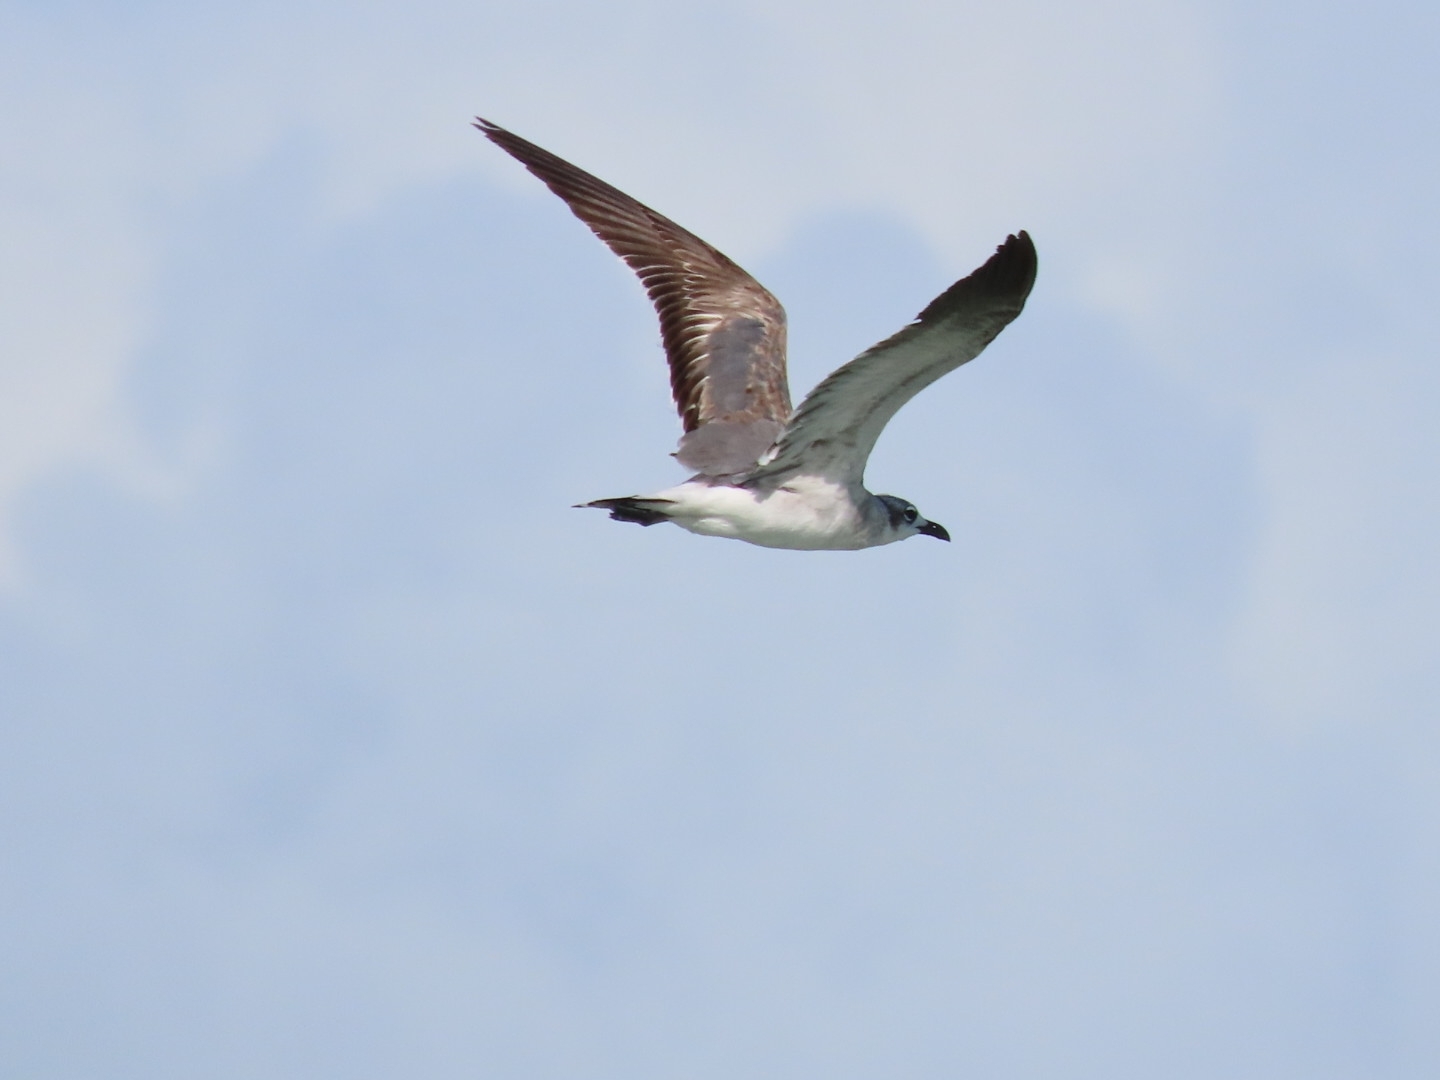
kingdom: Animalia
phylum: Chordata
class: Aves
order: Charadriiformes
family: Laridae
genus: Leucophaeus
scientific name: Leucophaeus atricilla
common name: Laughing gull
